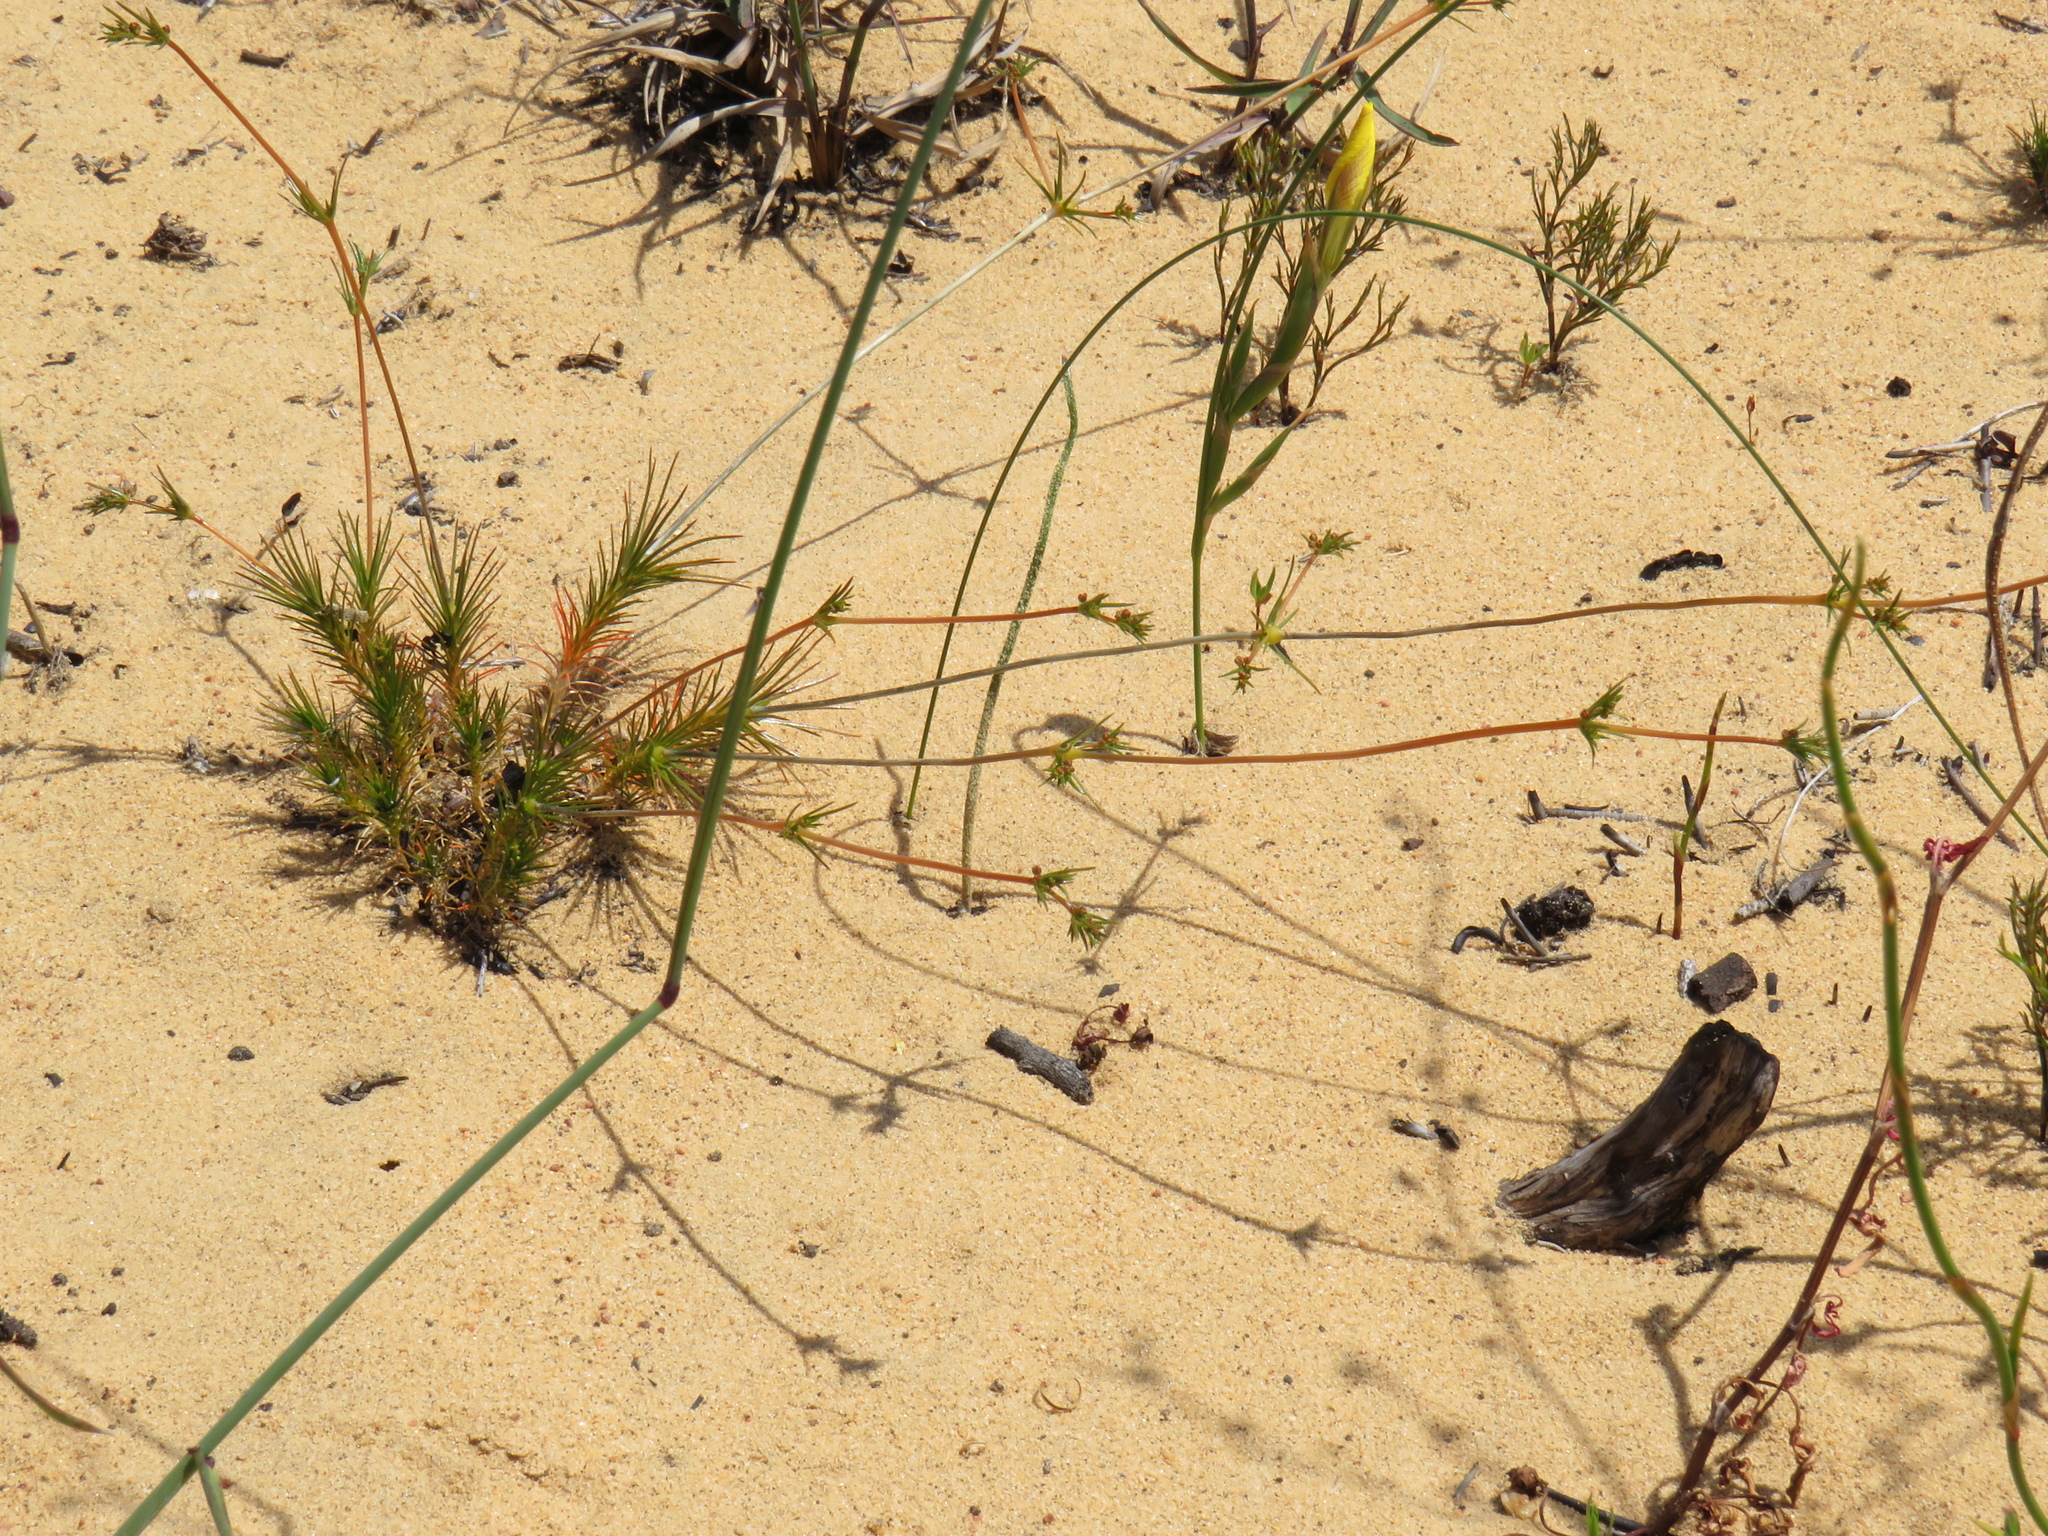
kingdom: Plantae
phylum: Tracheophyta
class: Magnoliopsida
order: Caryophyllales
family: Molluginaceae
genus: Adenogramma
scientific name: Adenogramma rigida
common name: Rigid muggiegrass
